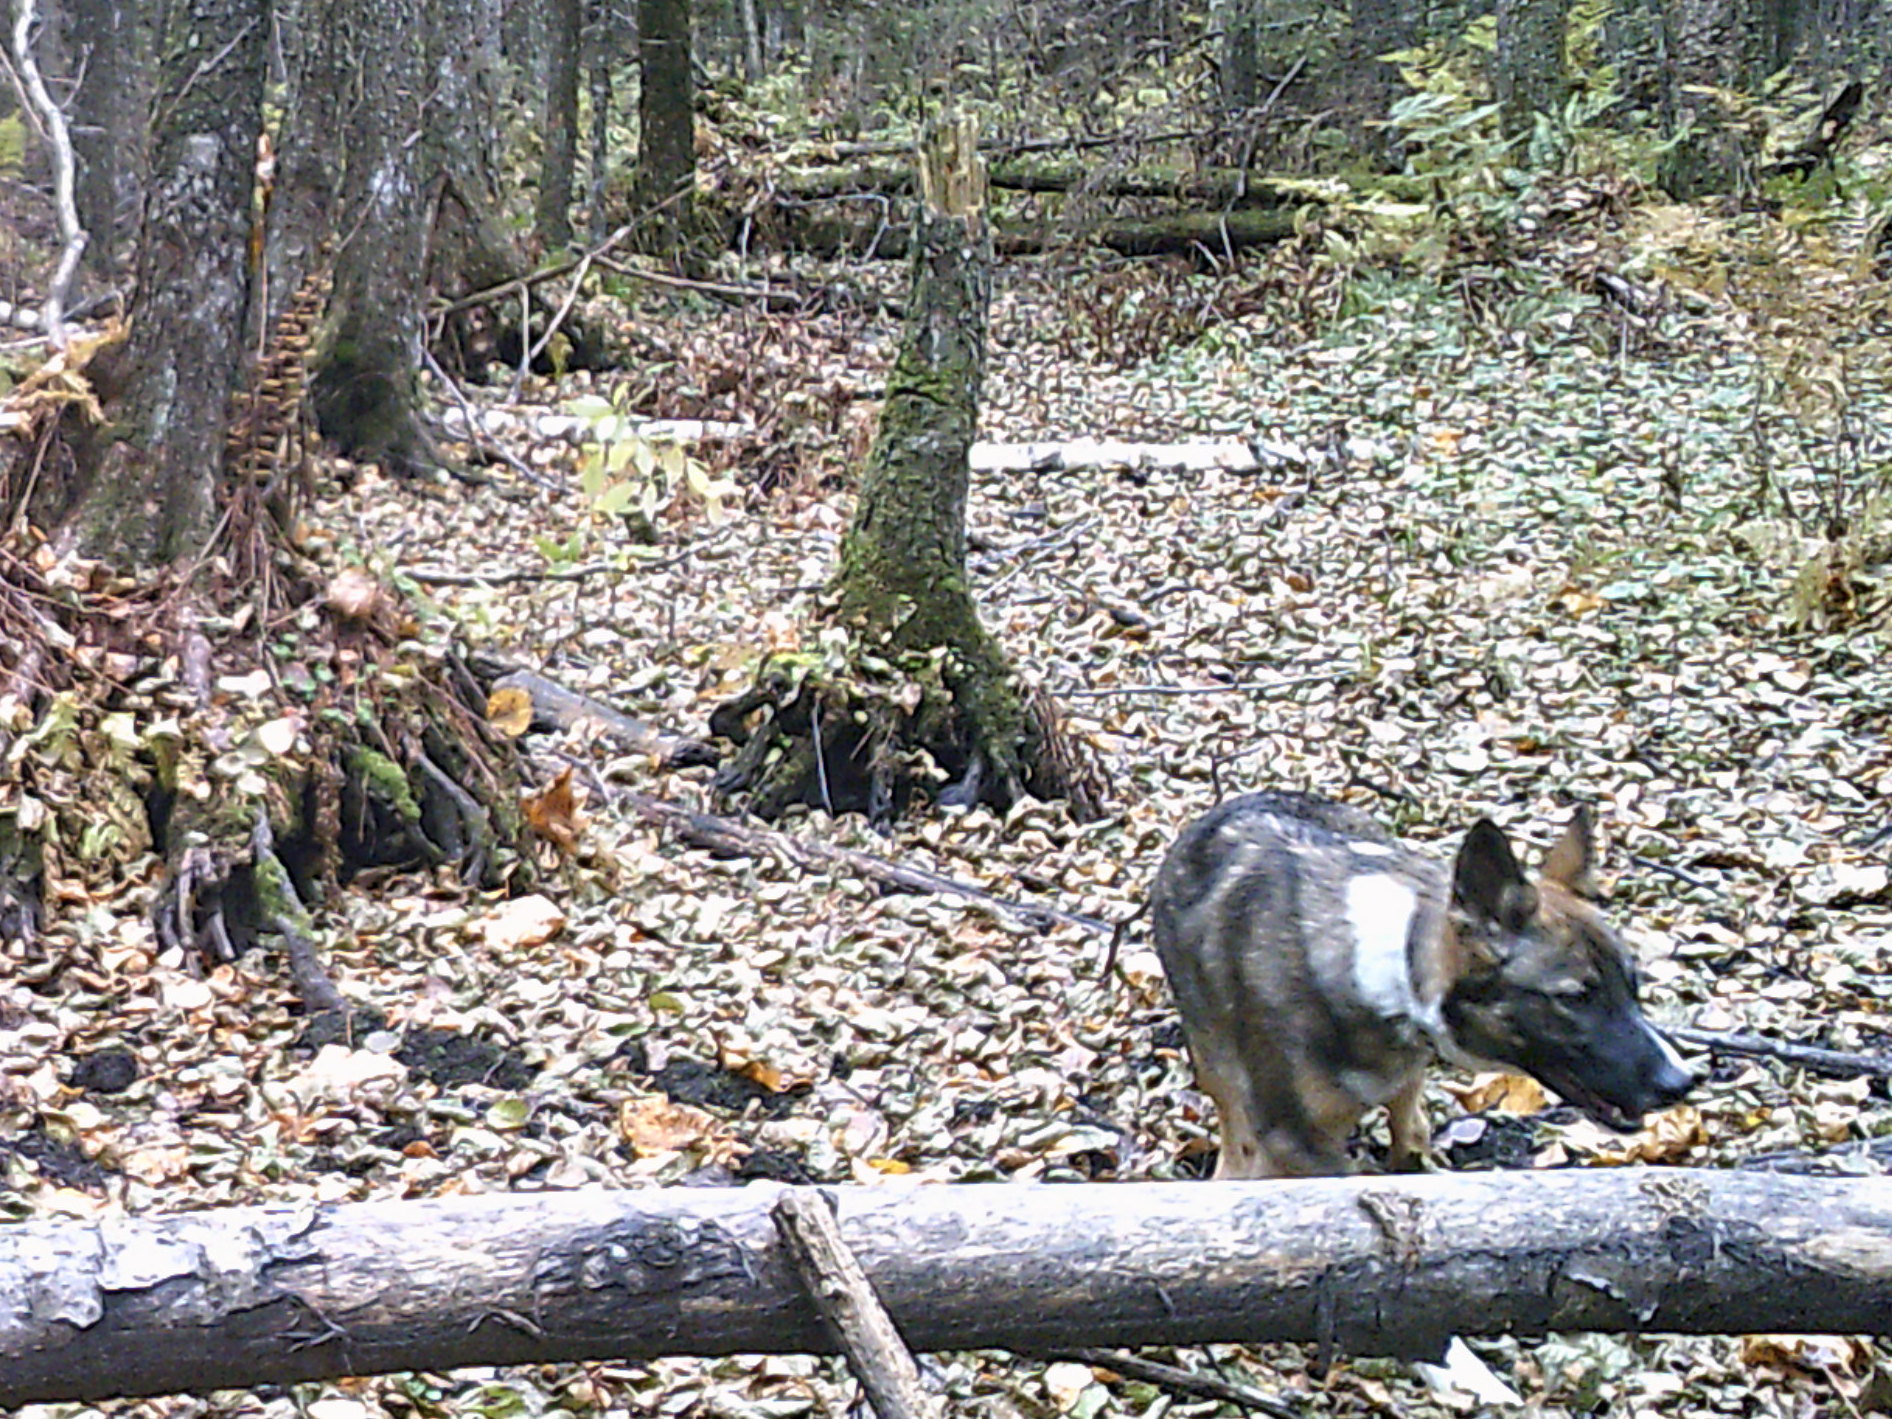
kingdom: Animalia
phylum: Chordata
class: Mammalia
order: Carnivora
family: Canidae
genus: Canis
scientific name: Canis lupus
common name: Gray wolf
